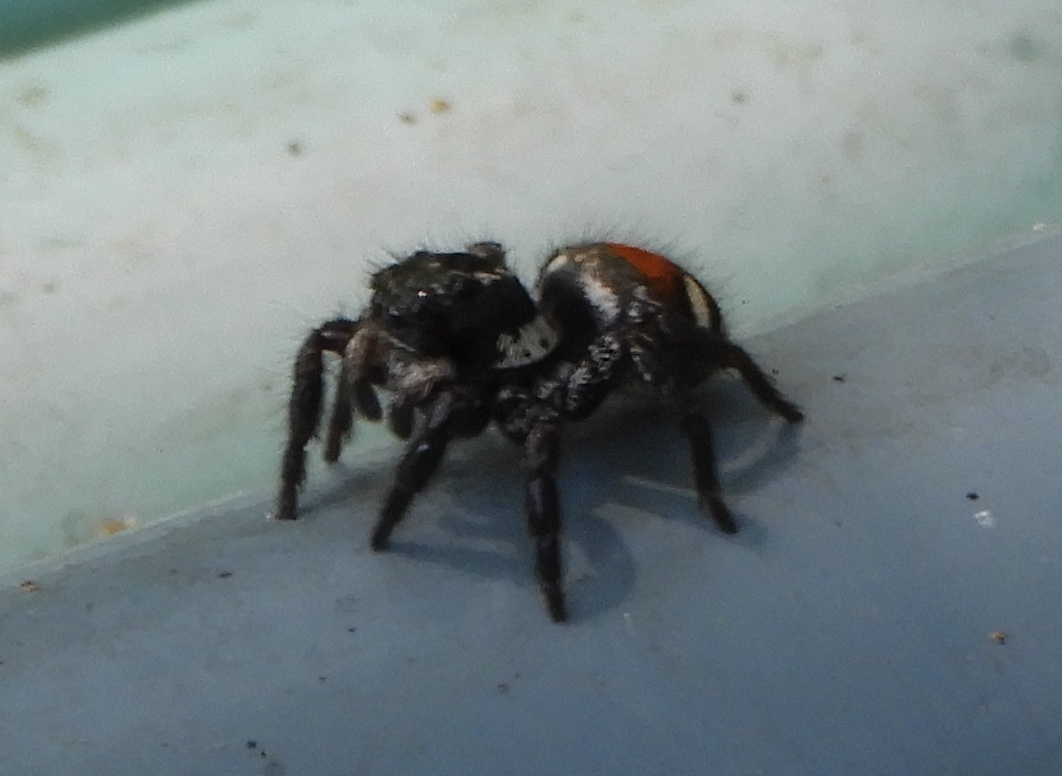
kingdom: Animalia
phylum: Arthropoda
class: Arachnida
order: Araneae
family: Salticidae
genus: Corythalia
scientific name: Corythalia opima
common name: Jumping spiders
